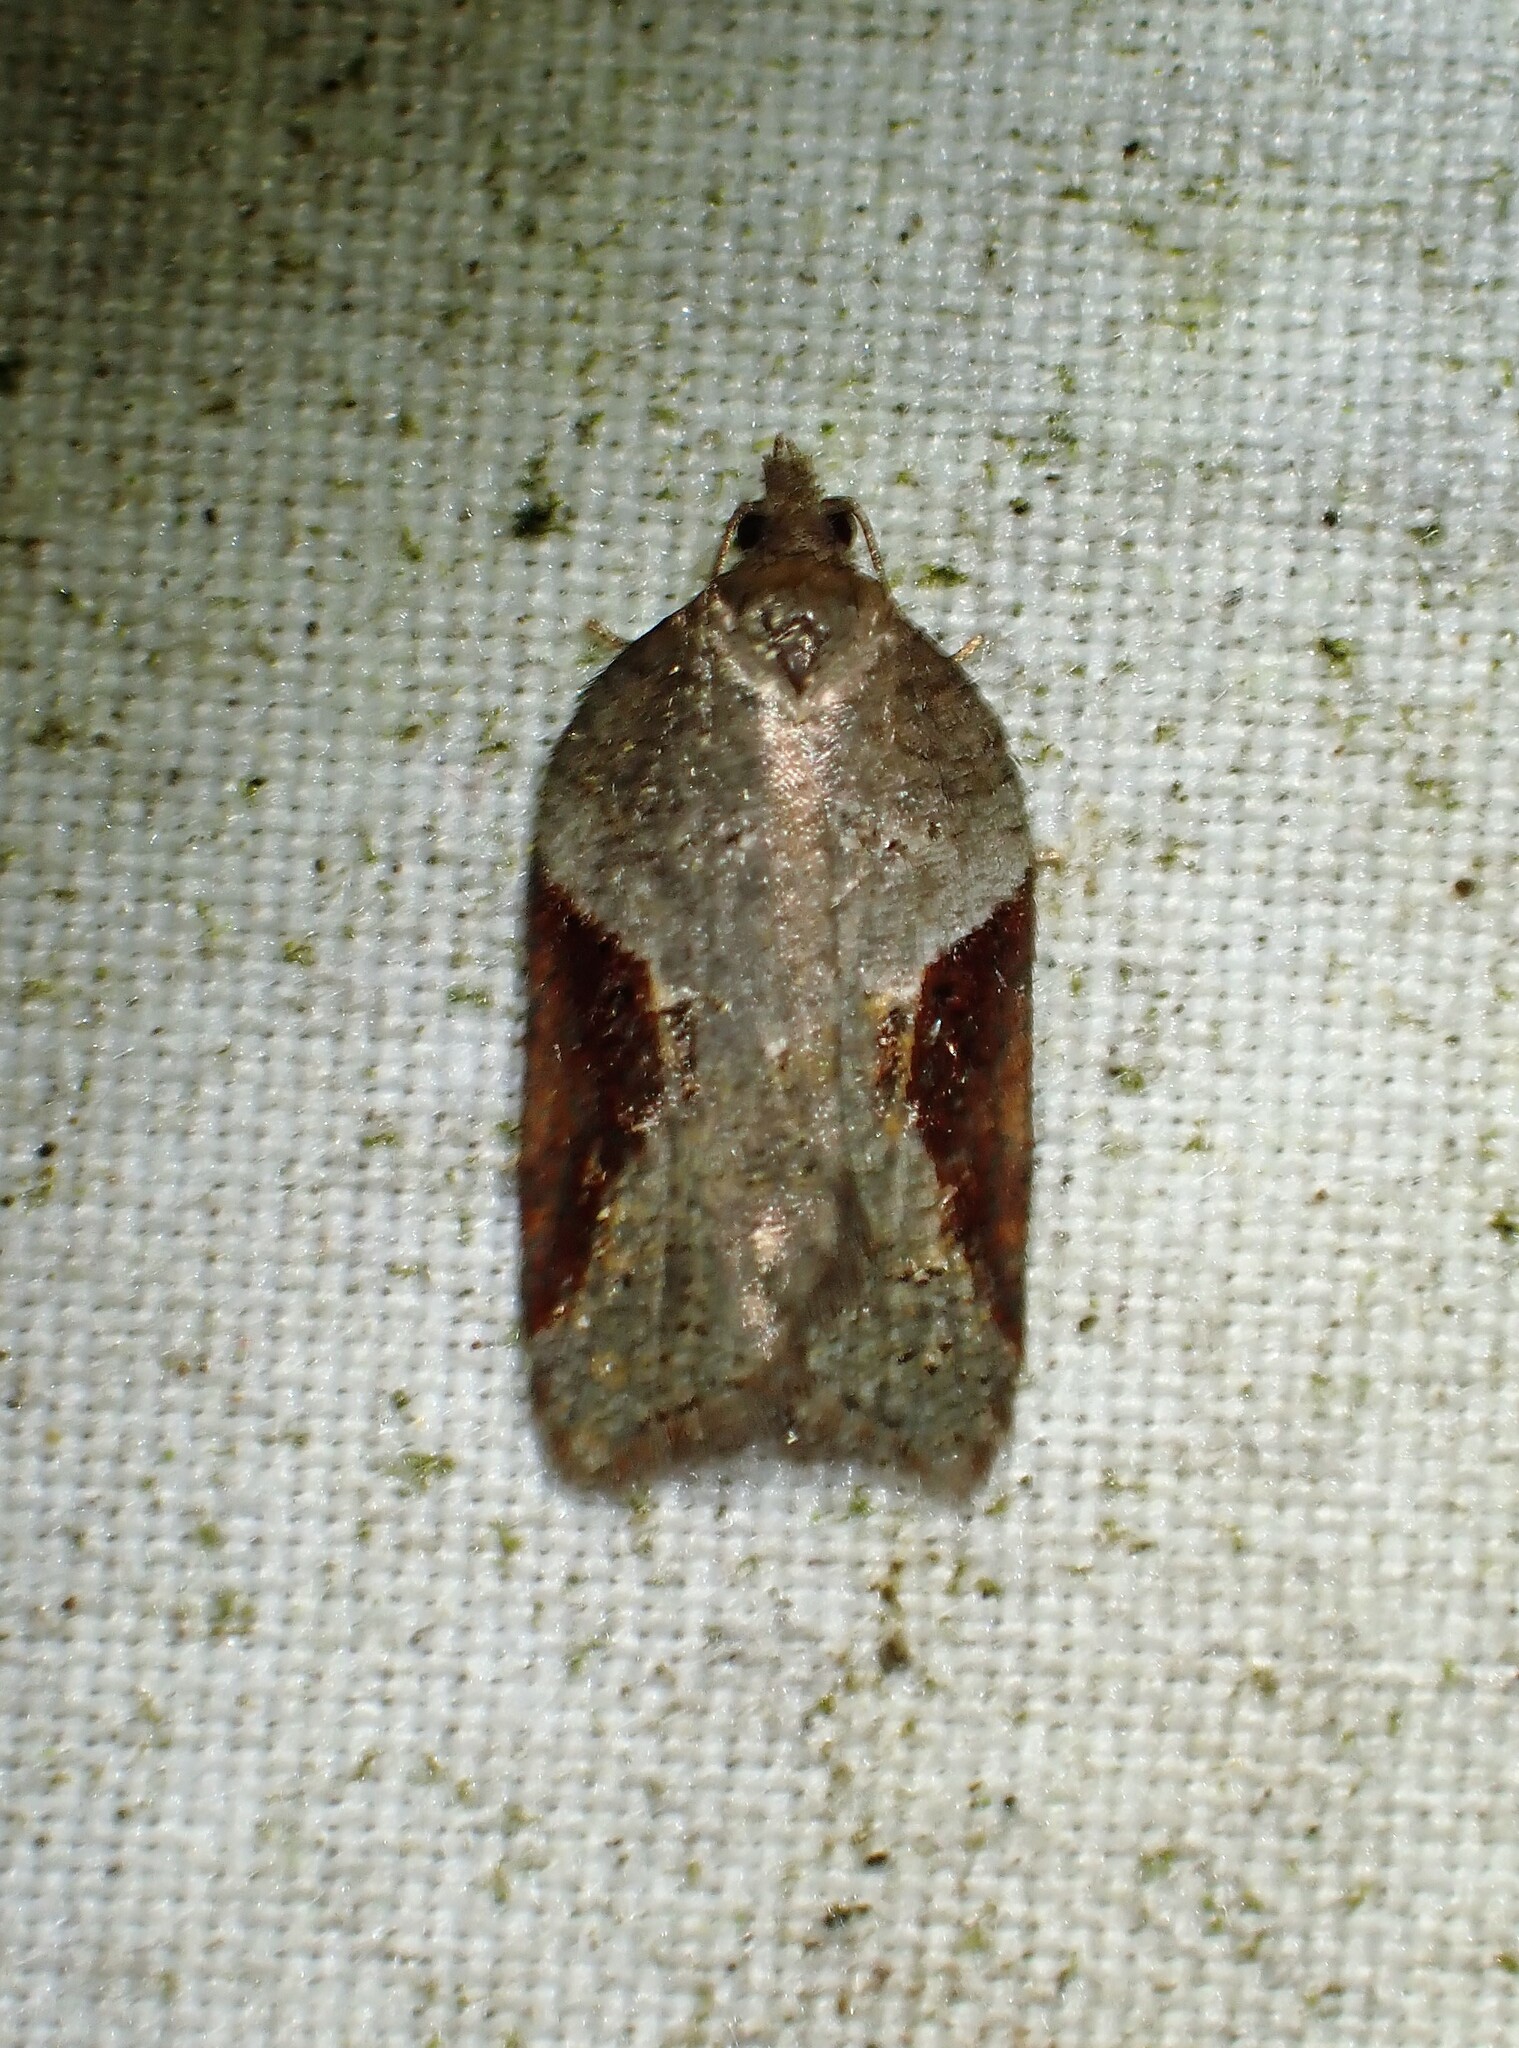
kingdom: Animalia
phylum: Arthropoda
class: Insecta
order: Lepidoptera
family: Tortricidae
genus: Acleris
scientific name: Acleris macdunnoughi
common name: Macdunnough's acleris
